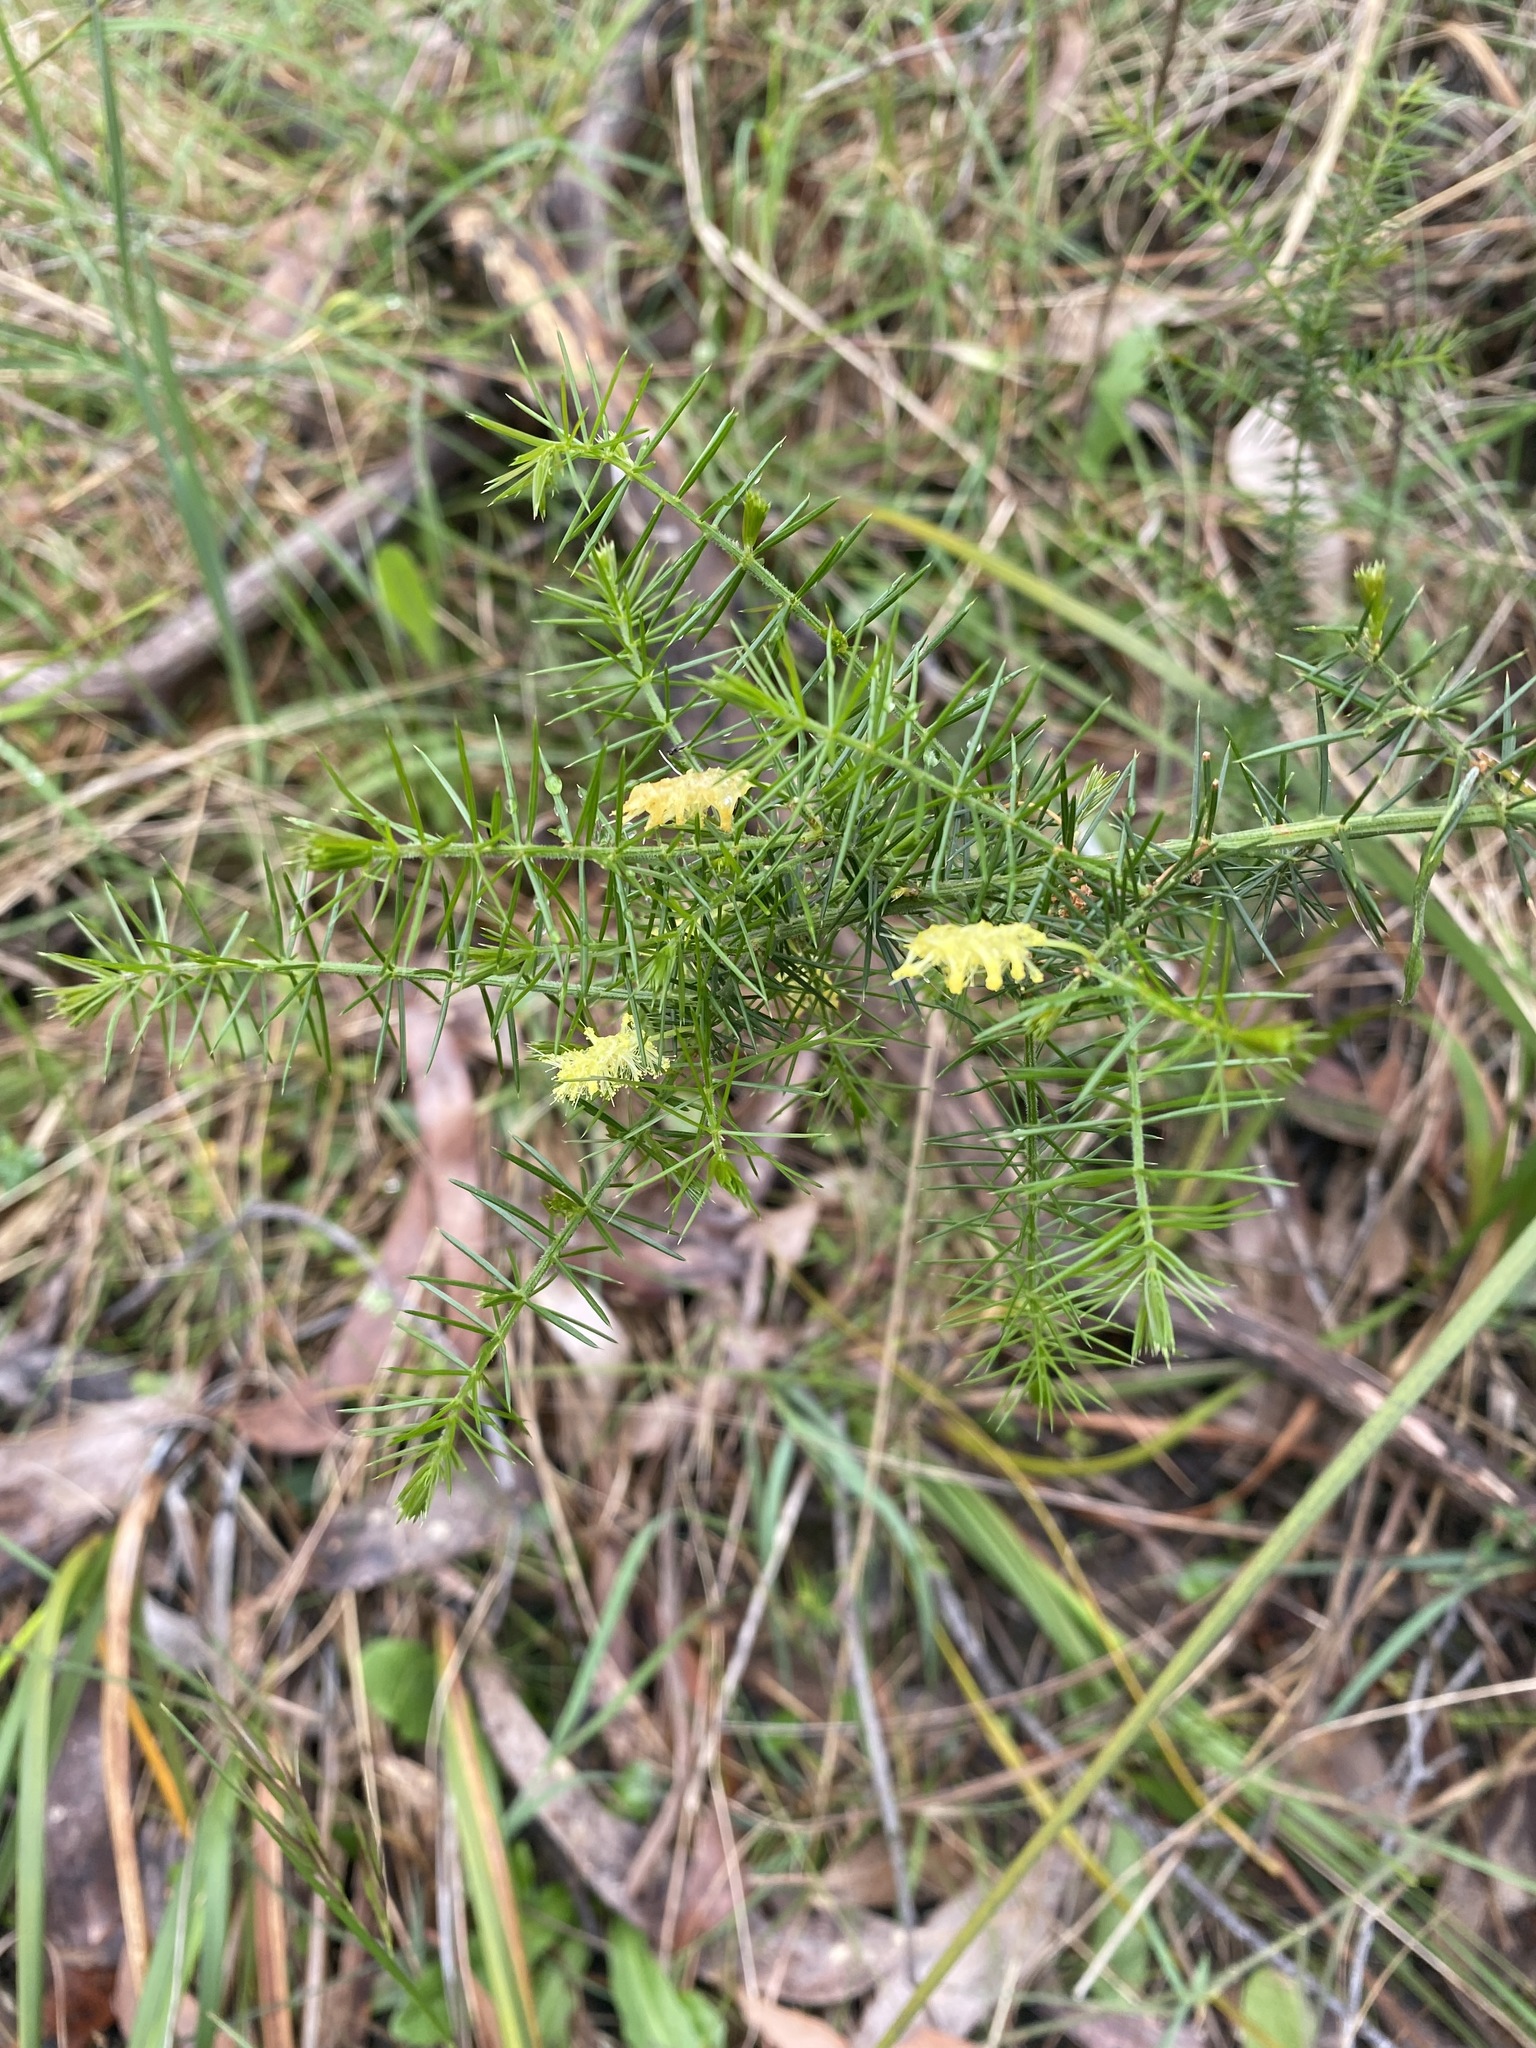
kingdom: Plantae
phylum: Tracheophyta
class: Magnoliopsida
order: Fabales
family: Fabaceae
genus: Acacia
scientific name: Acacia verticillata
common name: Prickly moses
